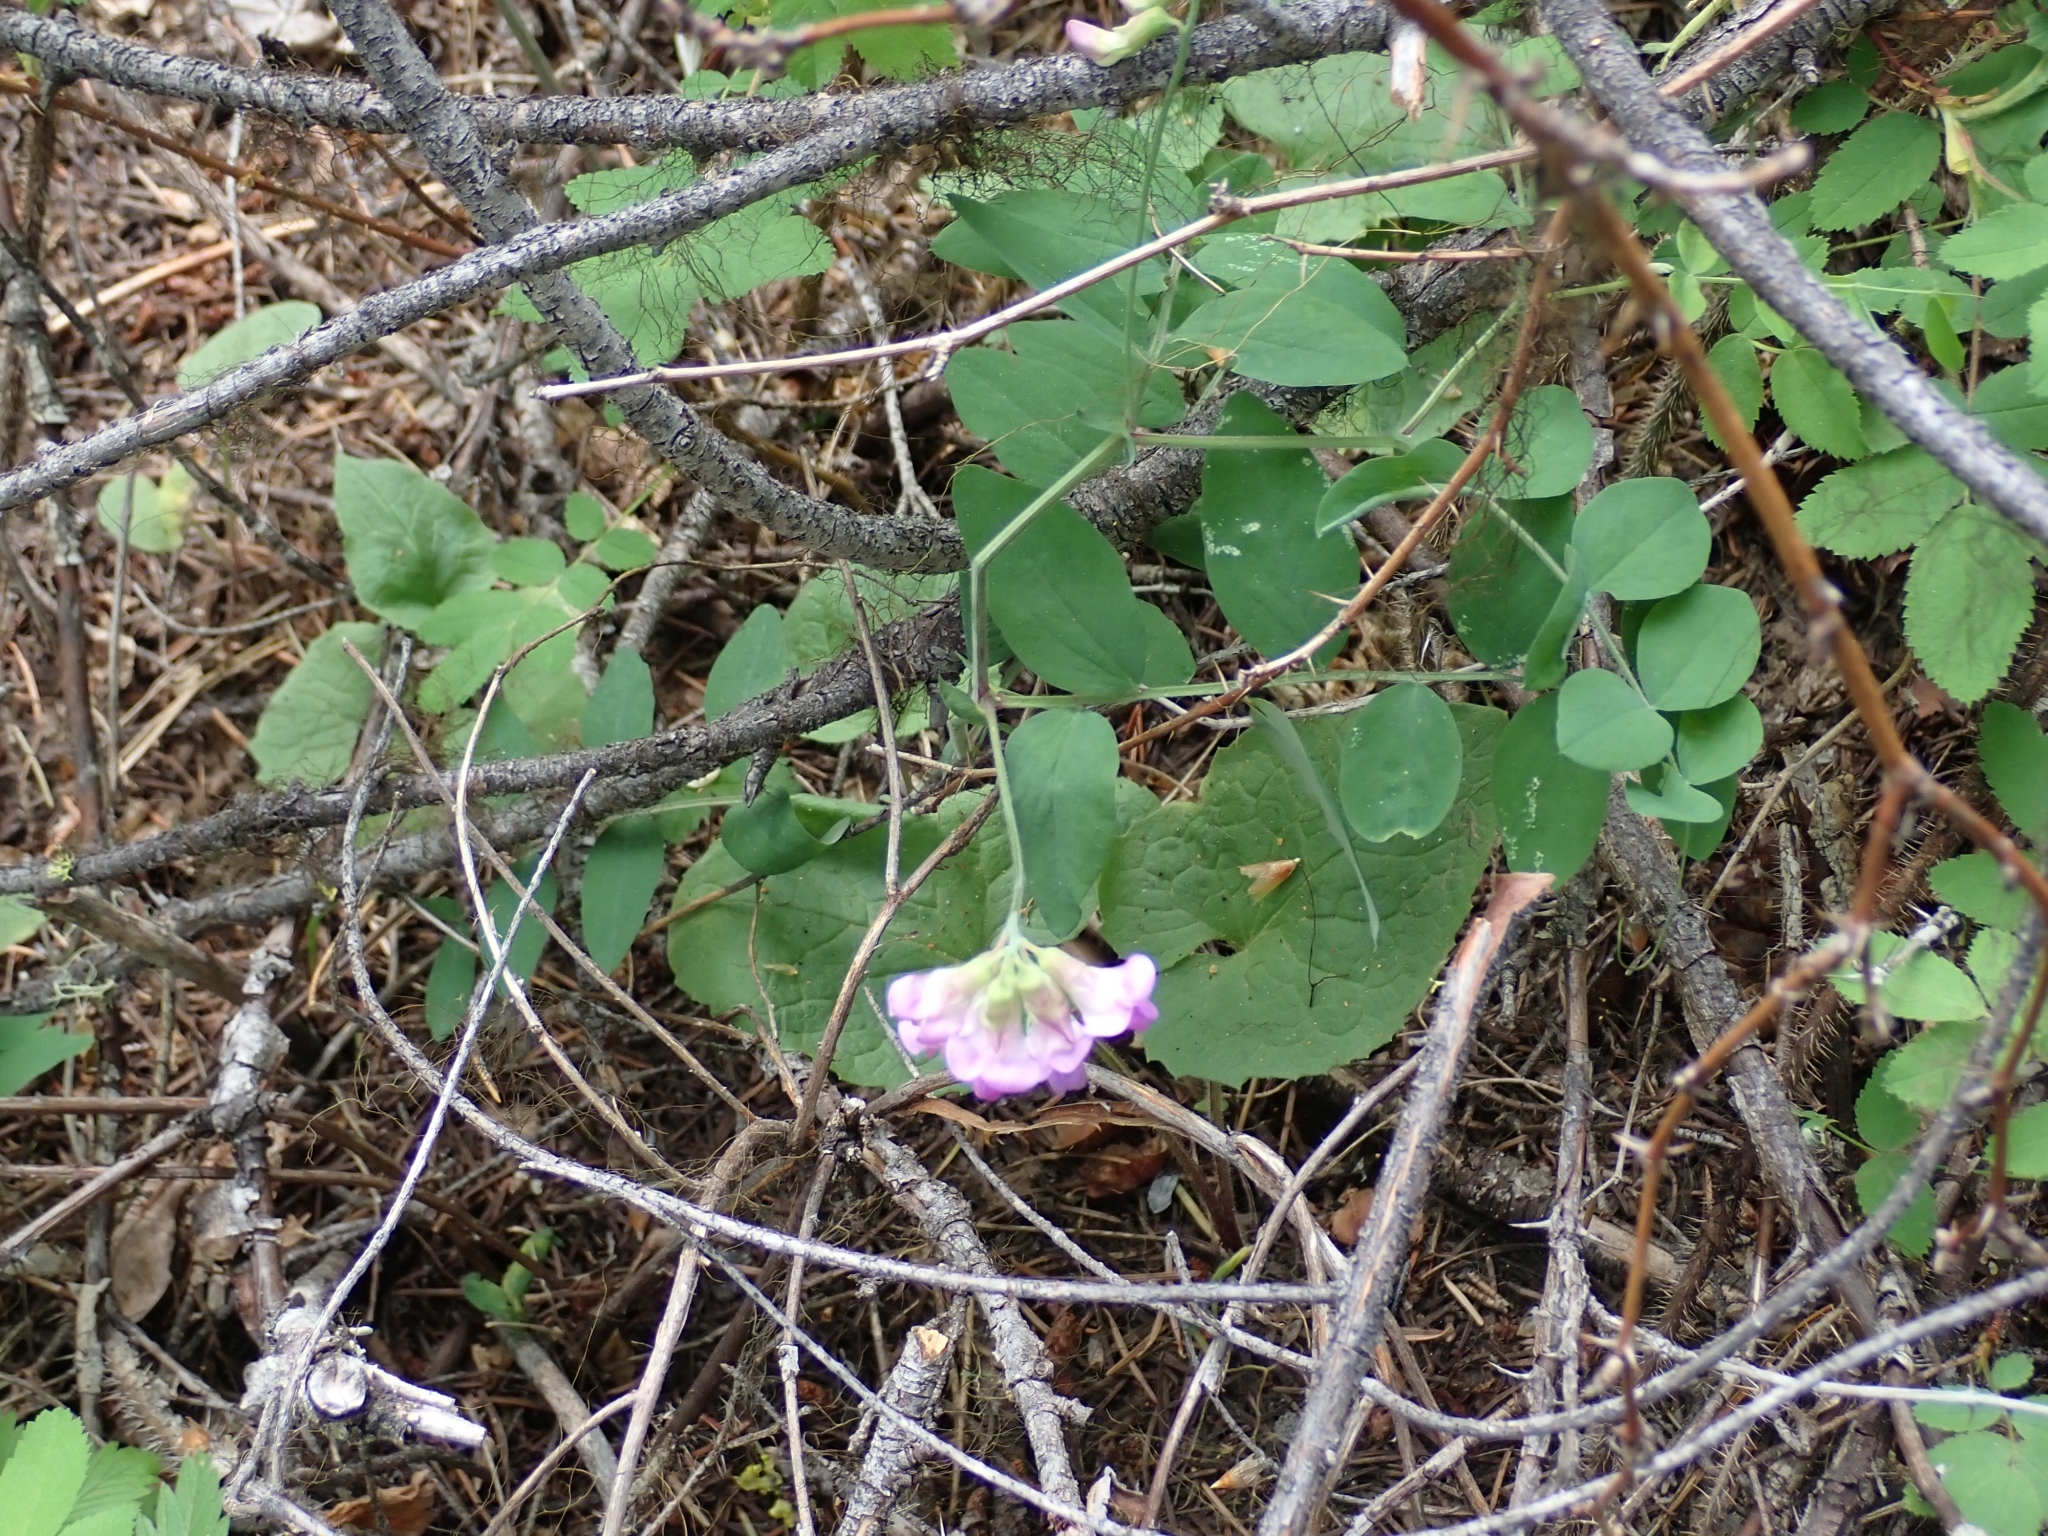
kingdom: Plantae
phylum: Tracheophyta
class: Magnoliopsida
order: Fabales
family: Fabaceae
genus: Lathyrus
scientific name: Lathyrus nevadensis
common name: Sierra nevada peavine
